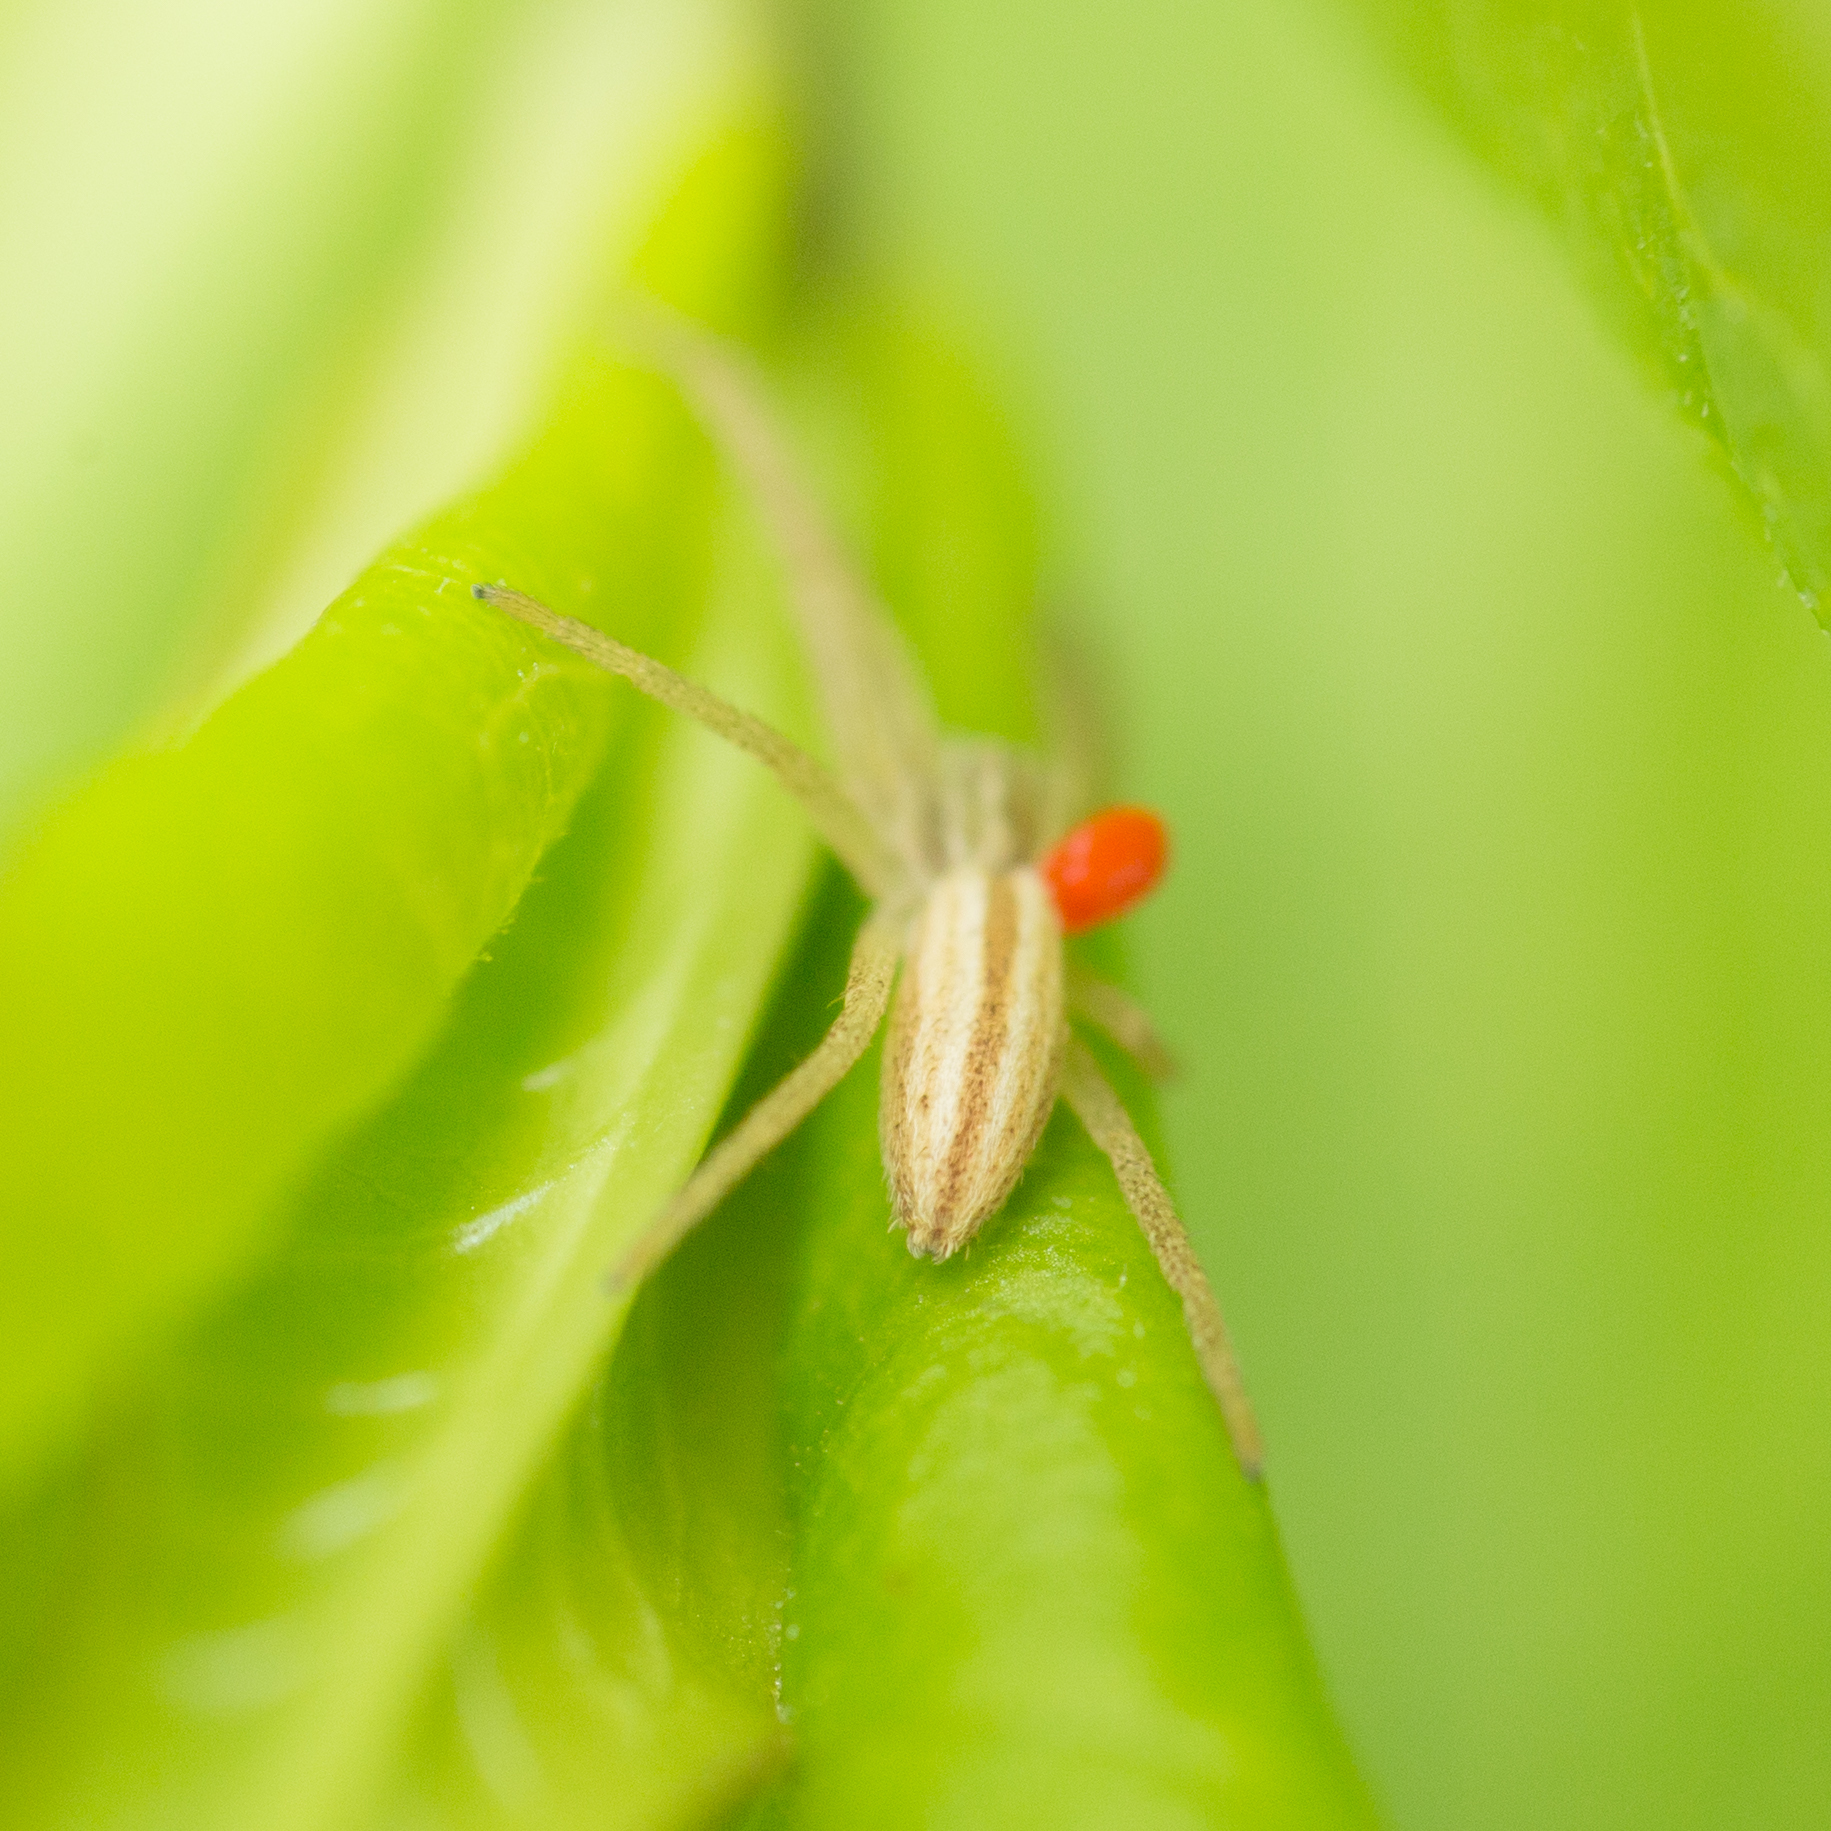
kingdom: Animalia
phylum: Arthropoda
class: Arachnida
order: Araneae
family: Philodromidae
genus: Tibellus
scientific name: Tibellus
